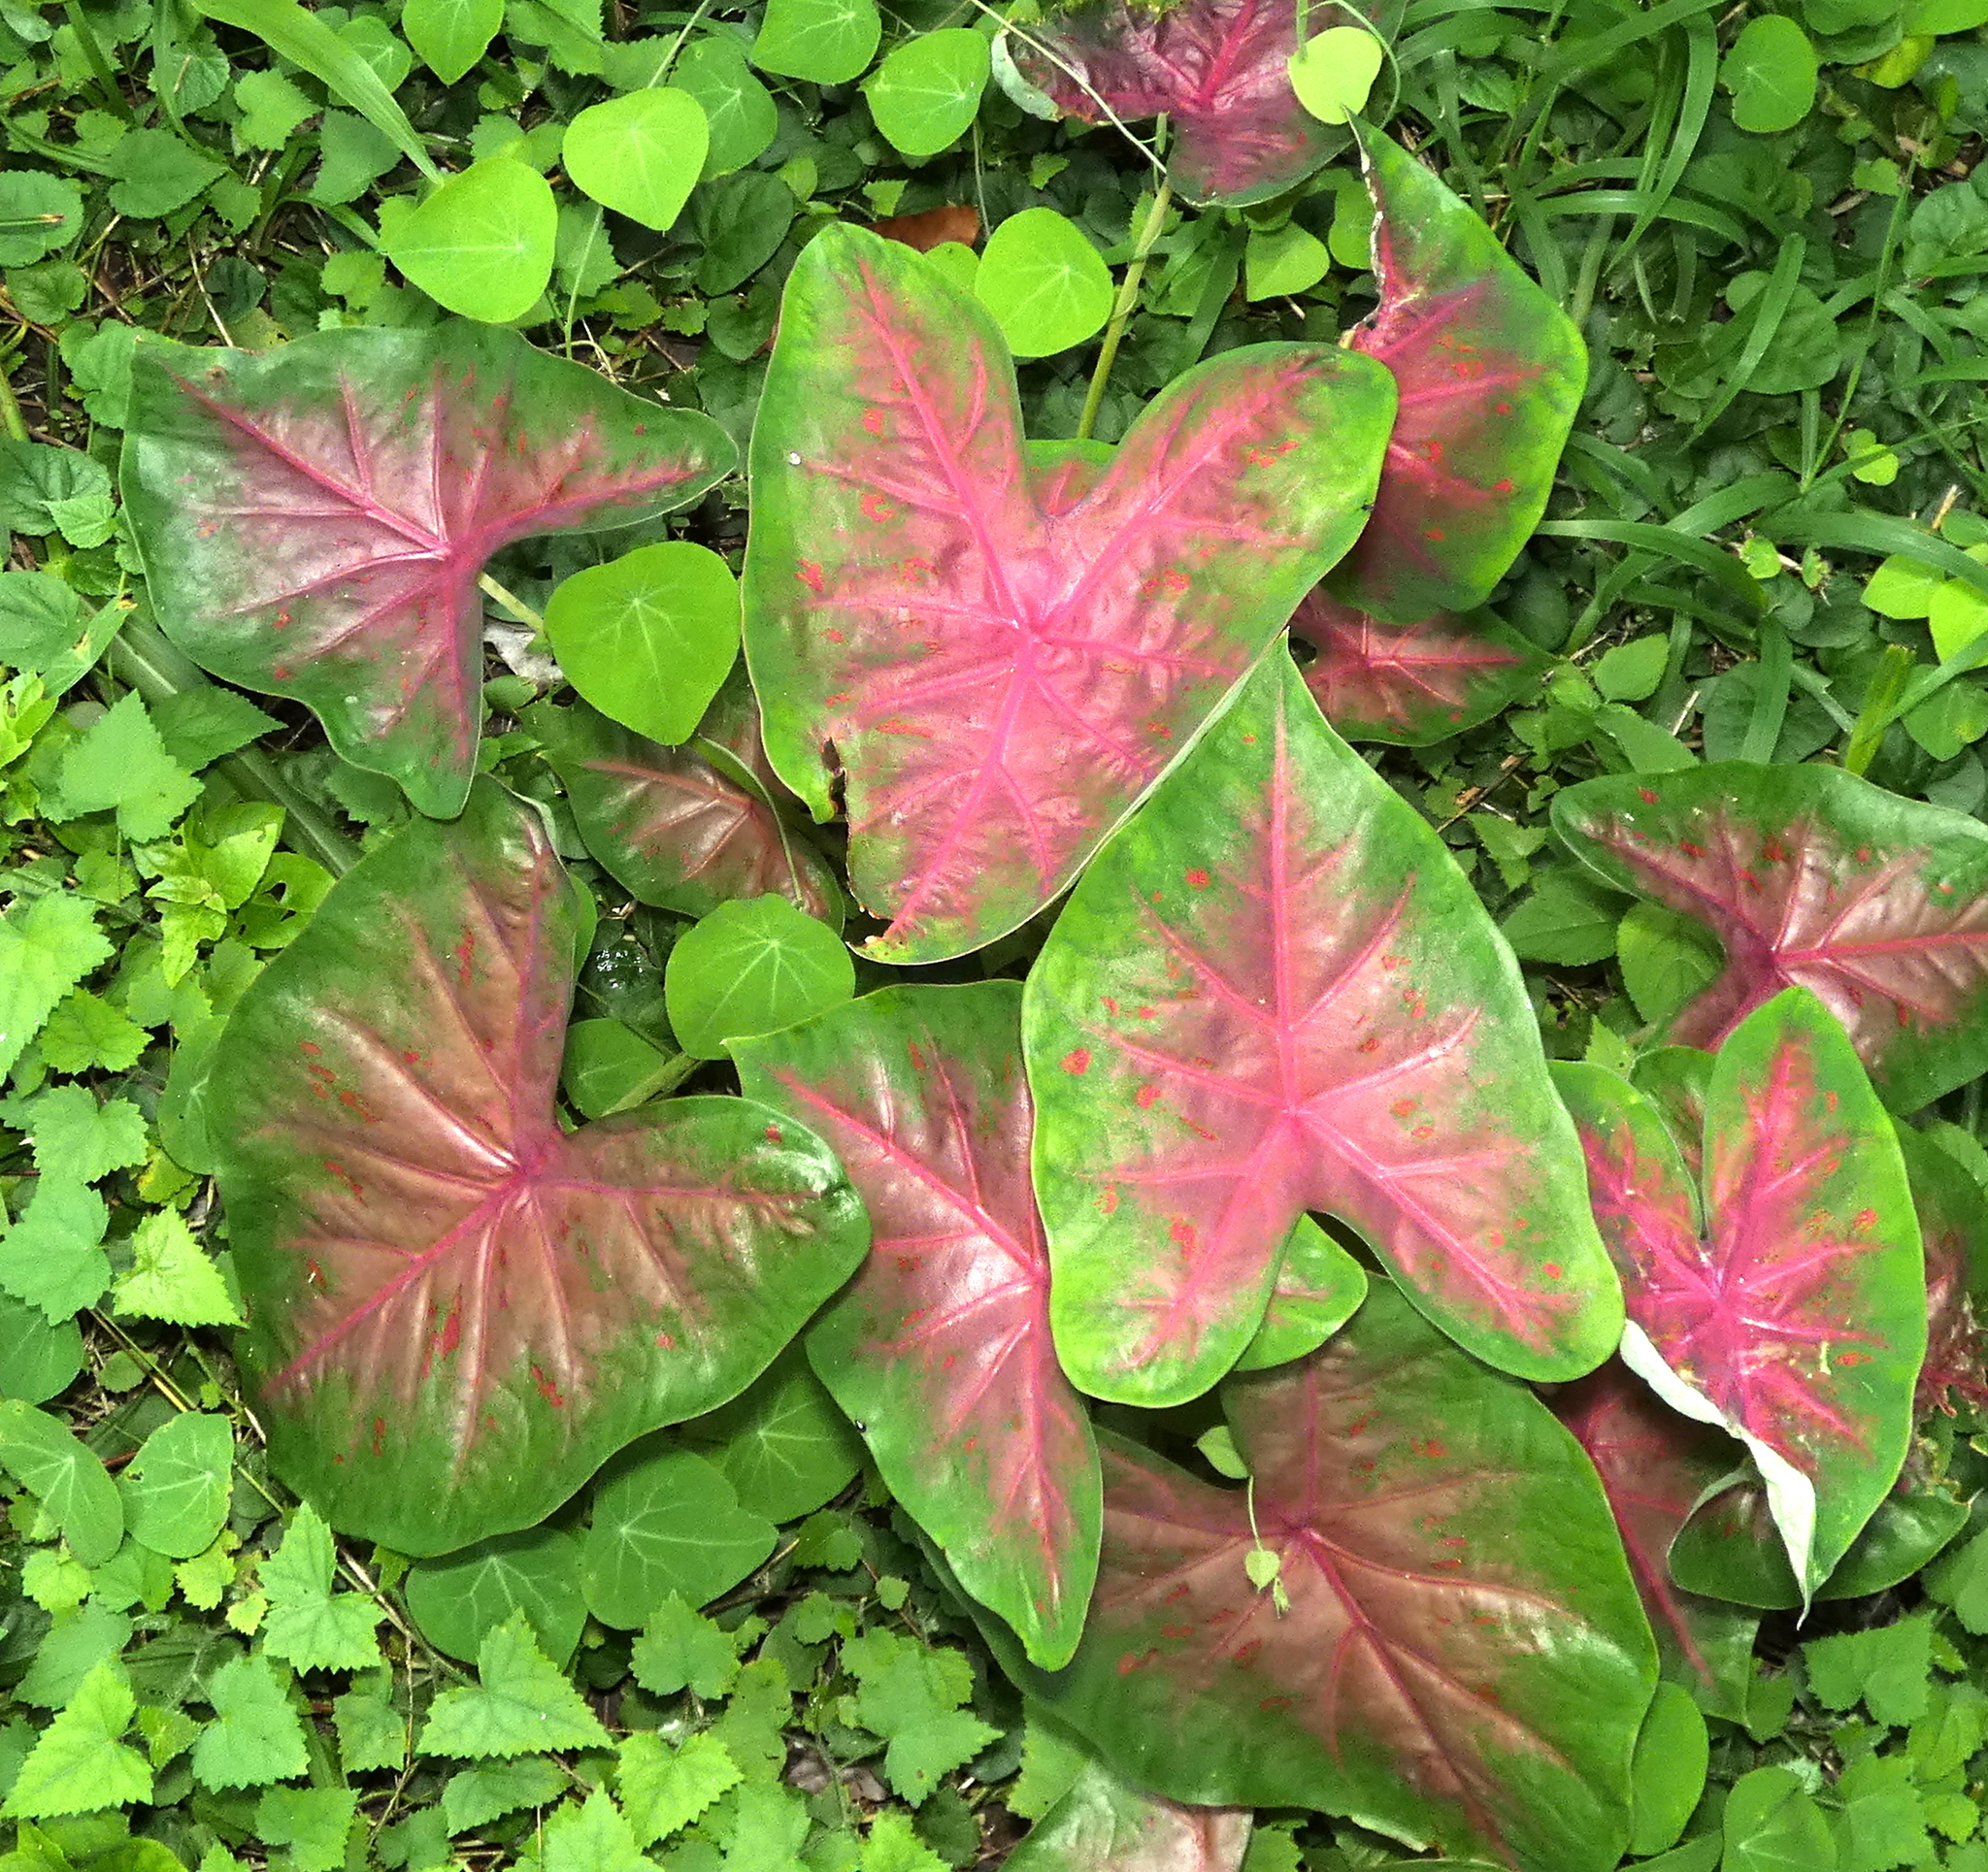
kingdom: Plantae
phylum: Tracheophyta
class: Liliopsida
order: Alismatales
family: Araceae
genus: Caladium
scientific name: Caladium bicolor
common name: Artist's pallet
